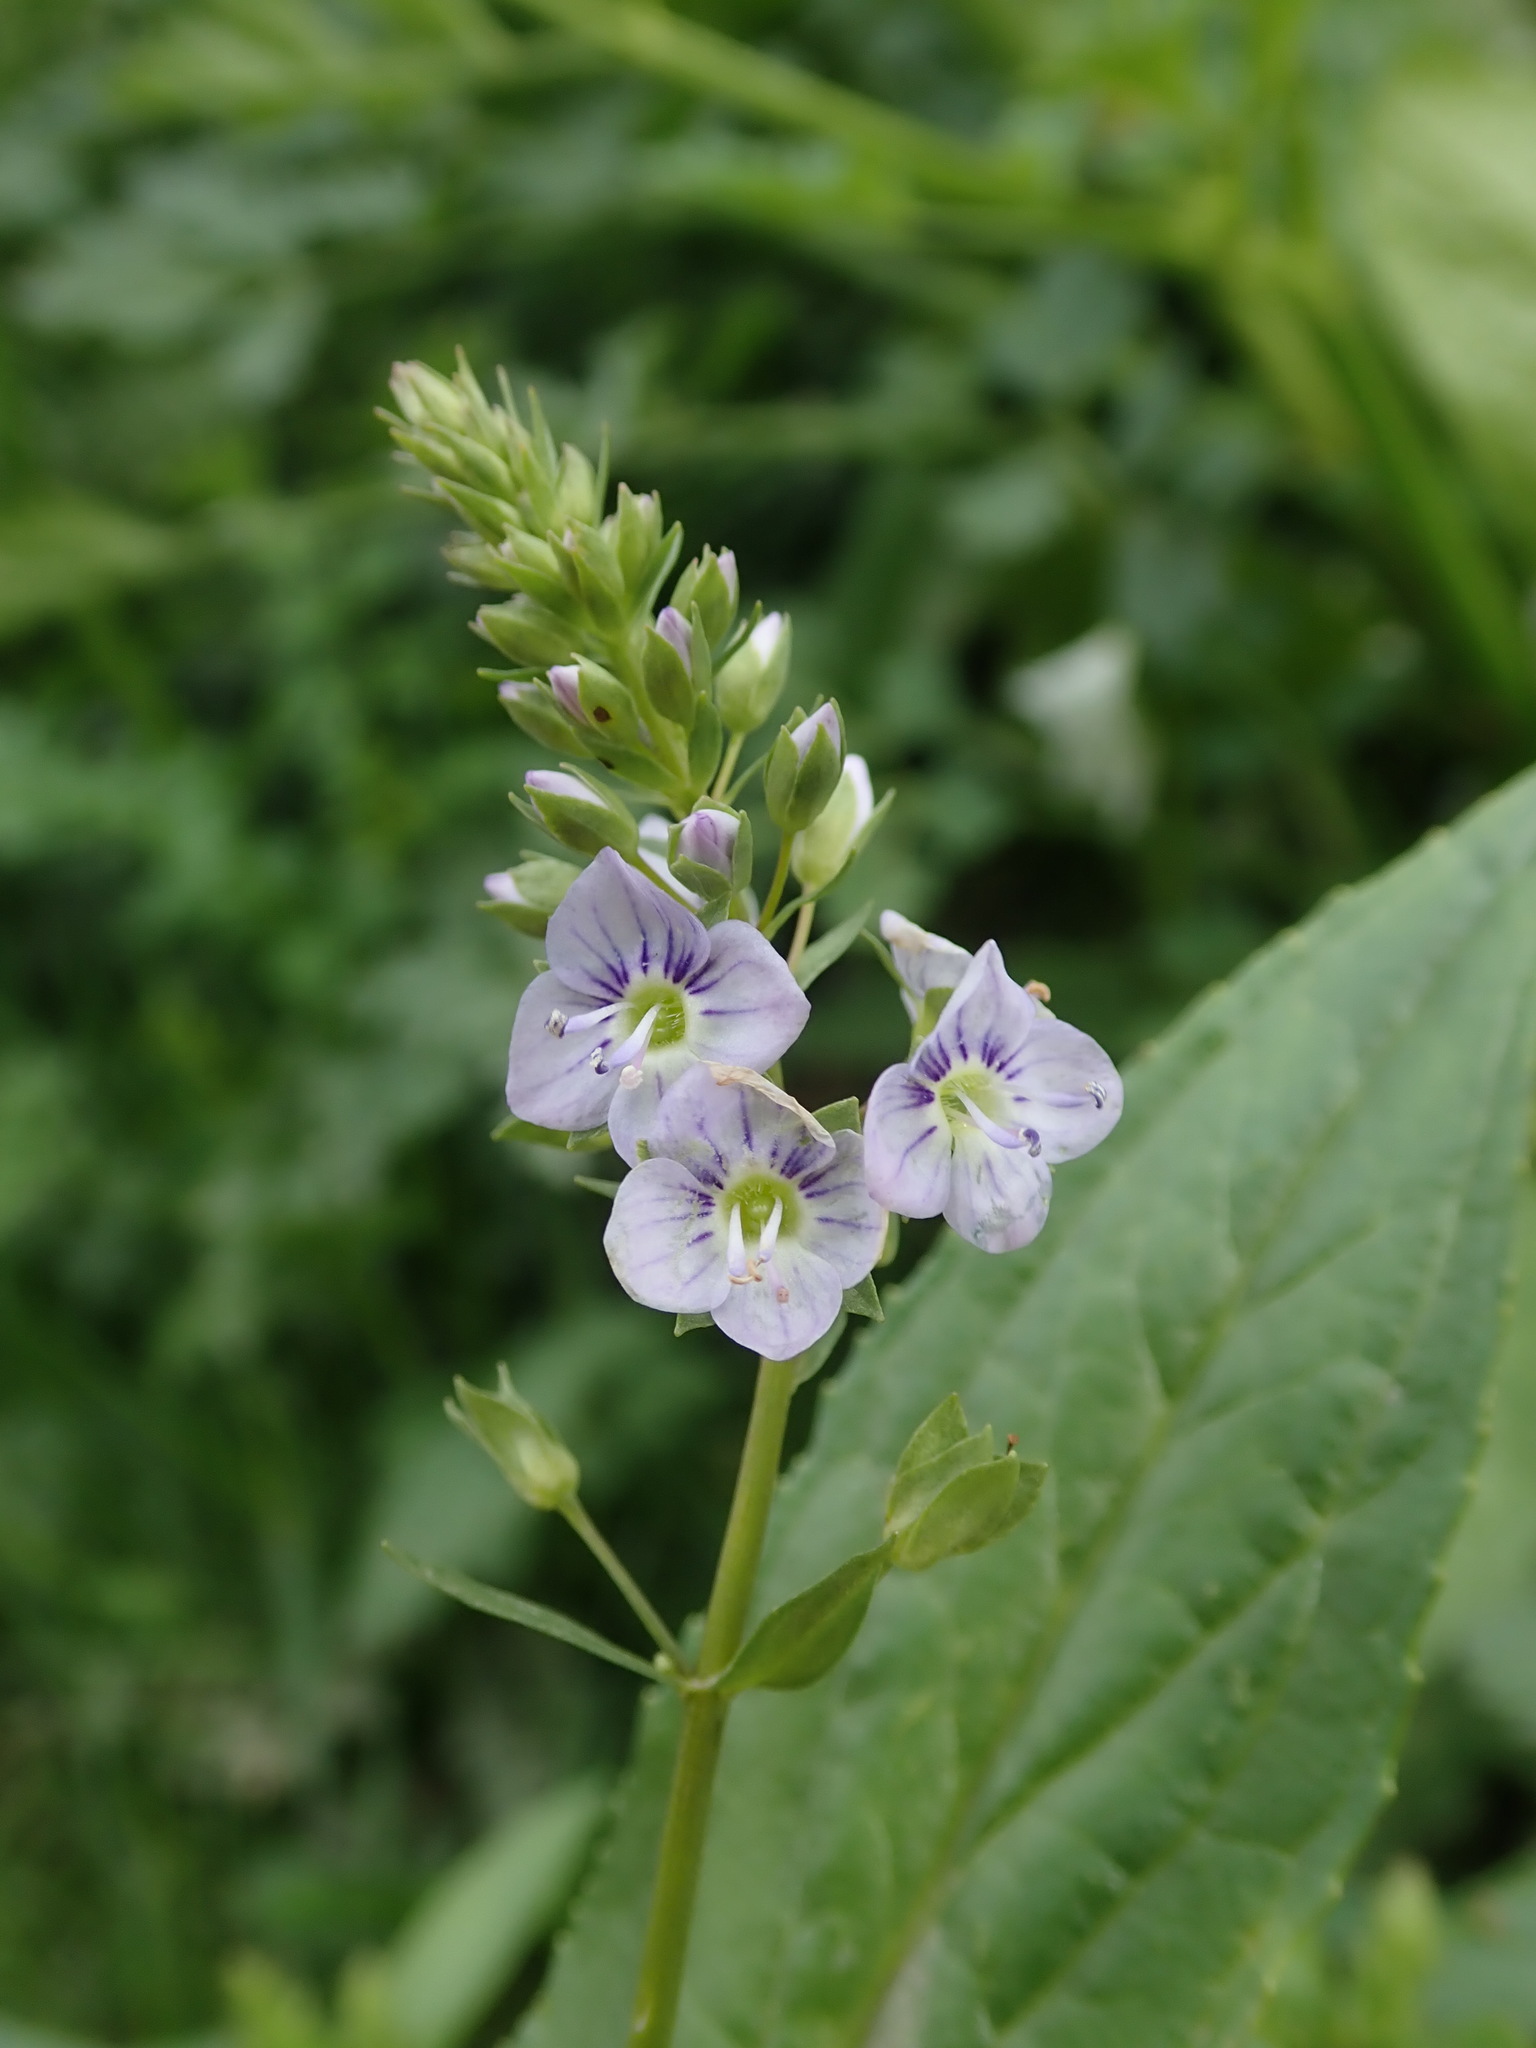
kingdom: Plantae
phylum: Tracheophyta
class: Magnoliopsida
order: Lamiales
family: Plantaginaceae
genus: Veronica
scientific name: Veronica anagallis-aquatica
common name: Water speedwell
